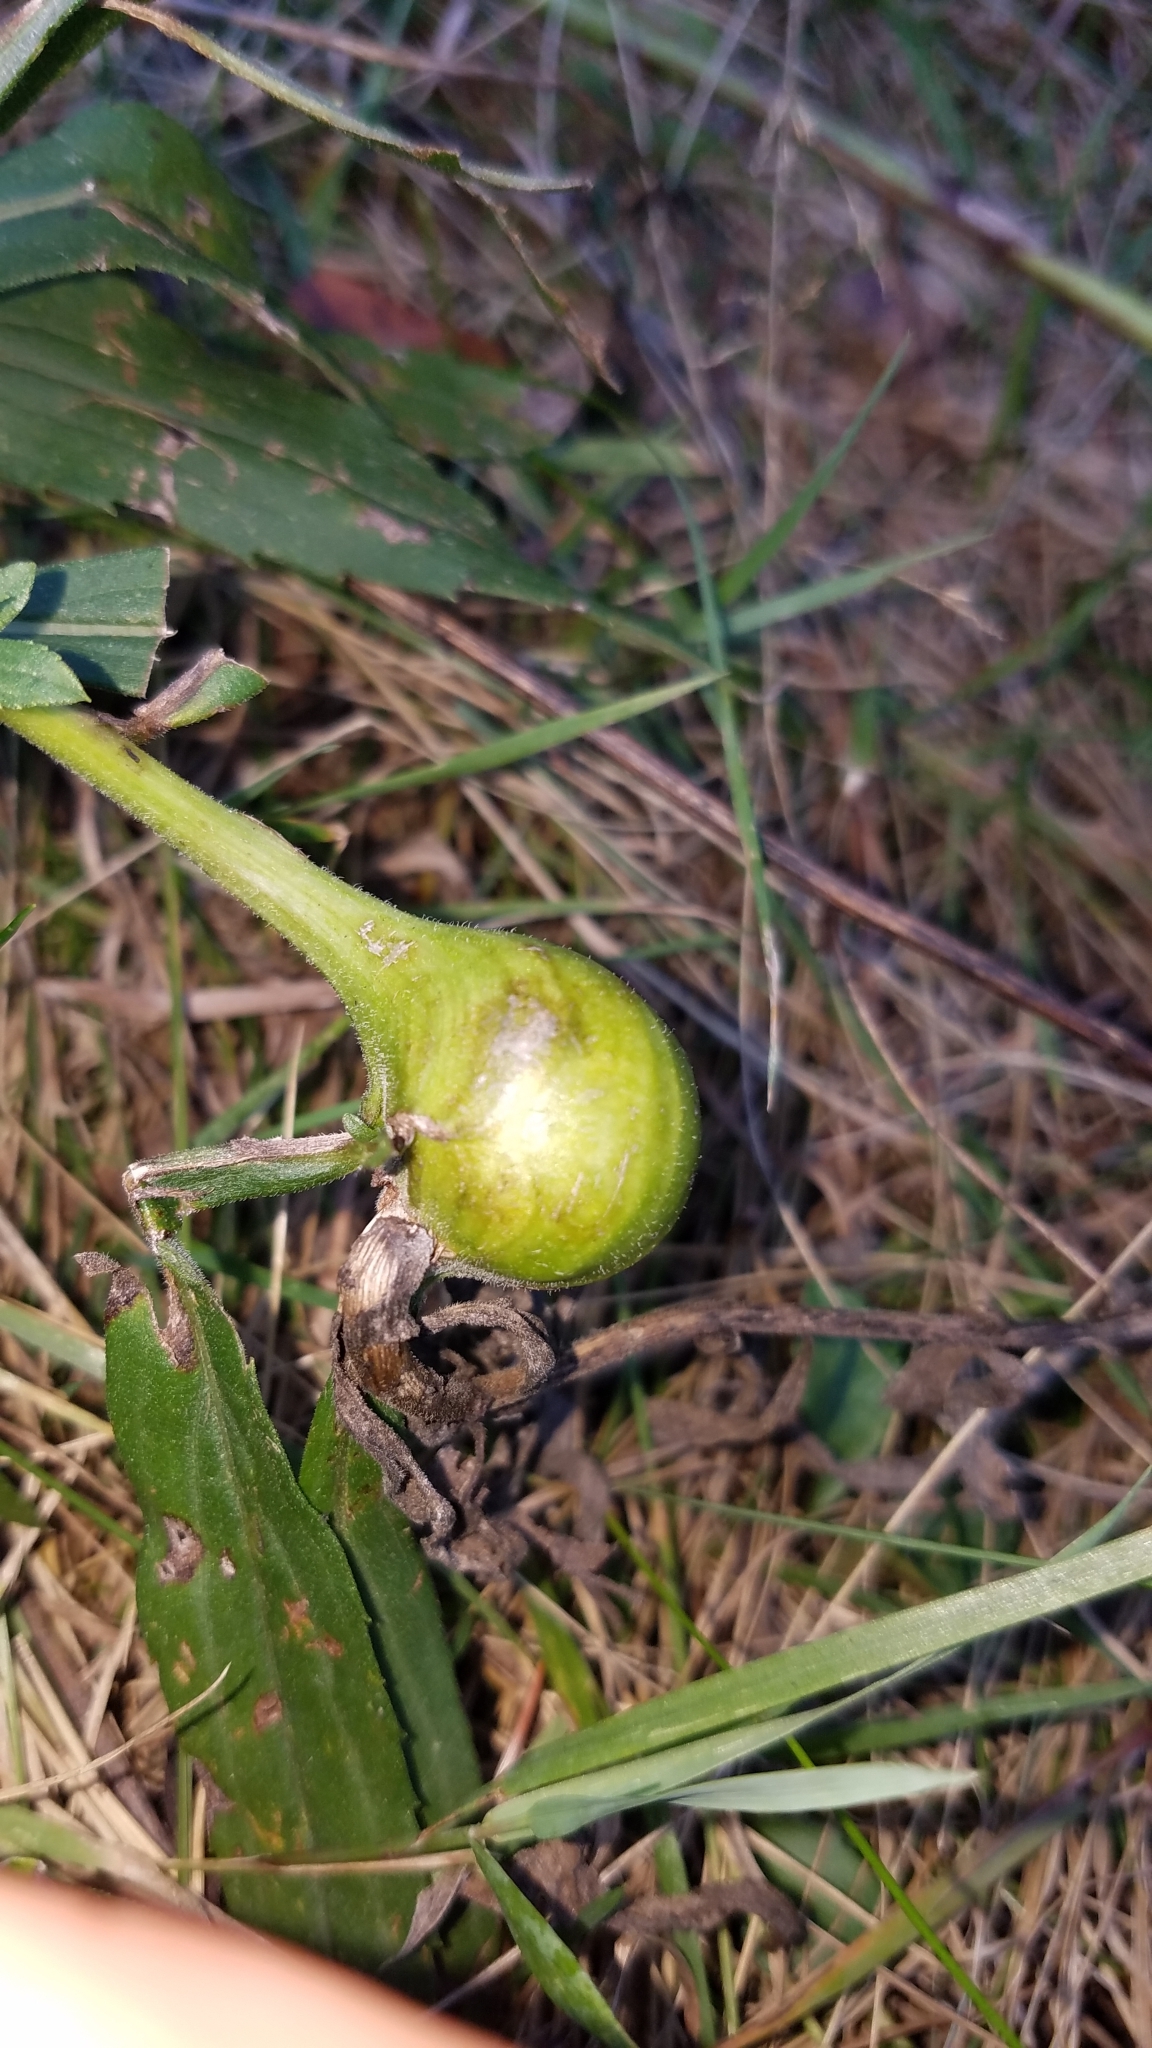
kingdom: Animalia
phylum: Arthropoda
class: Insecta
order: Diptera
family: Tephritidae
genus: Eurosta
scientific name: Eurosta solidaginis
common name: Goldenrod gall fly
